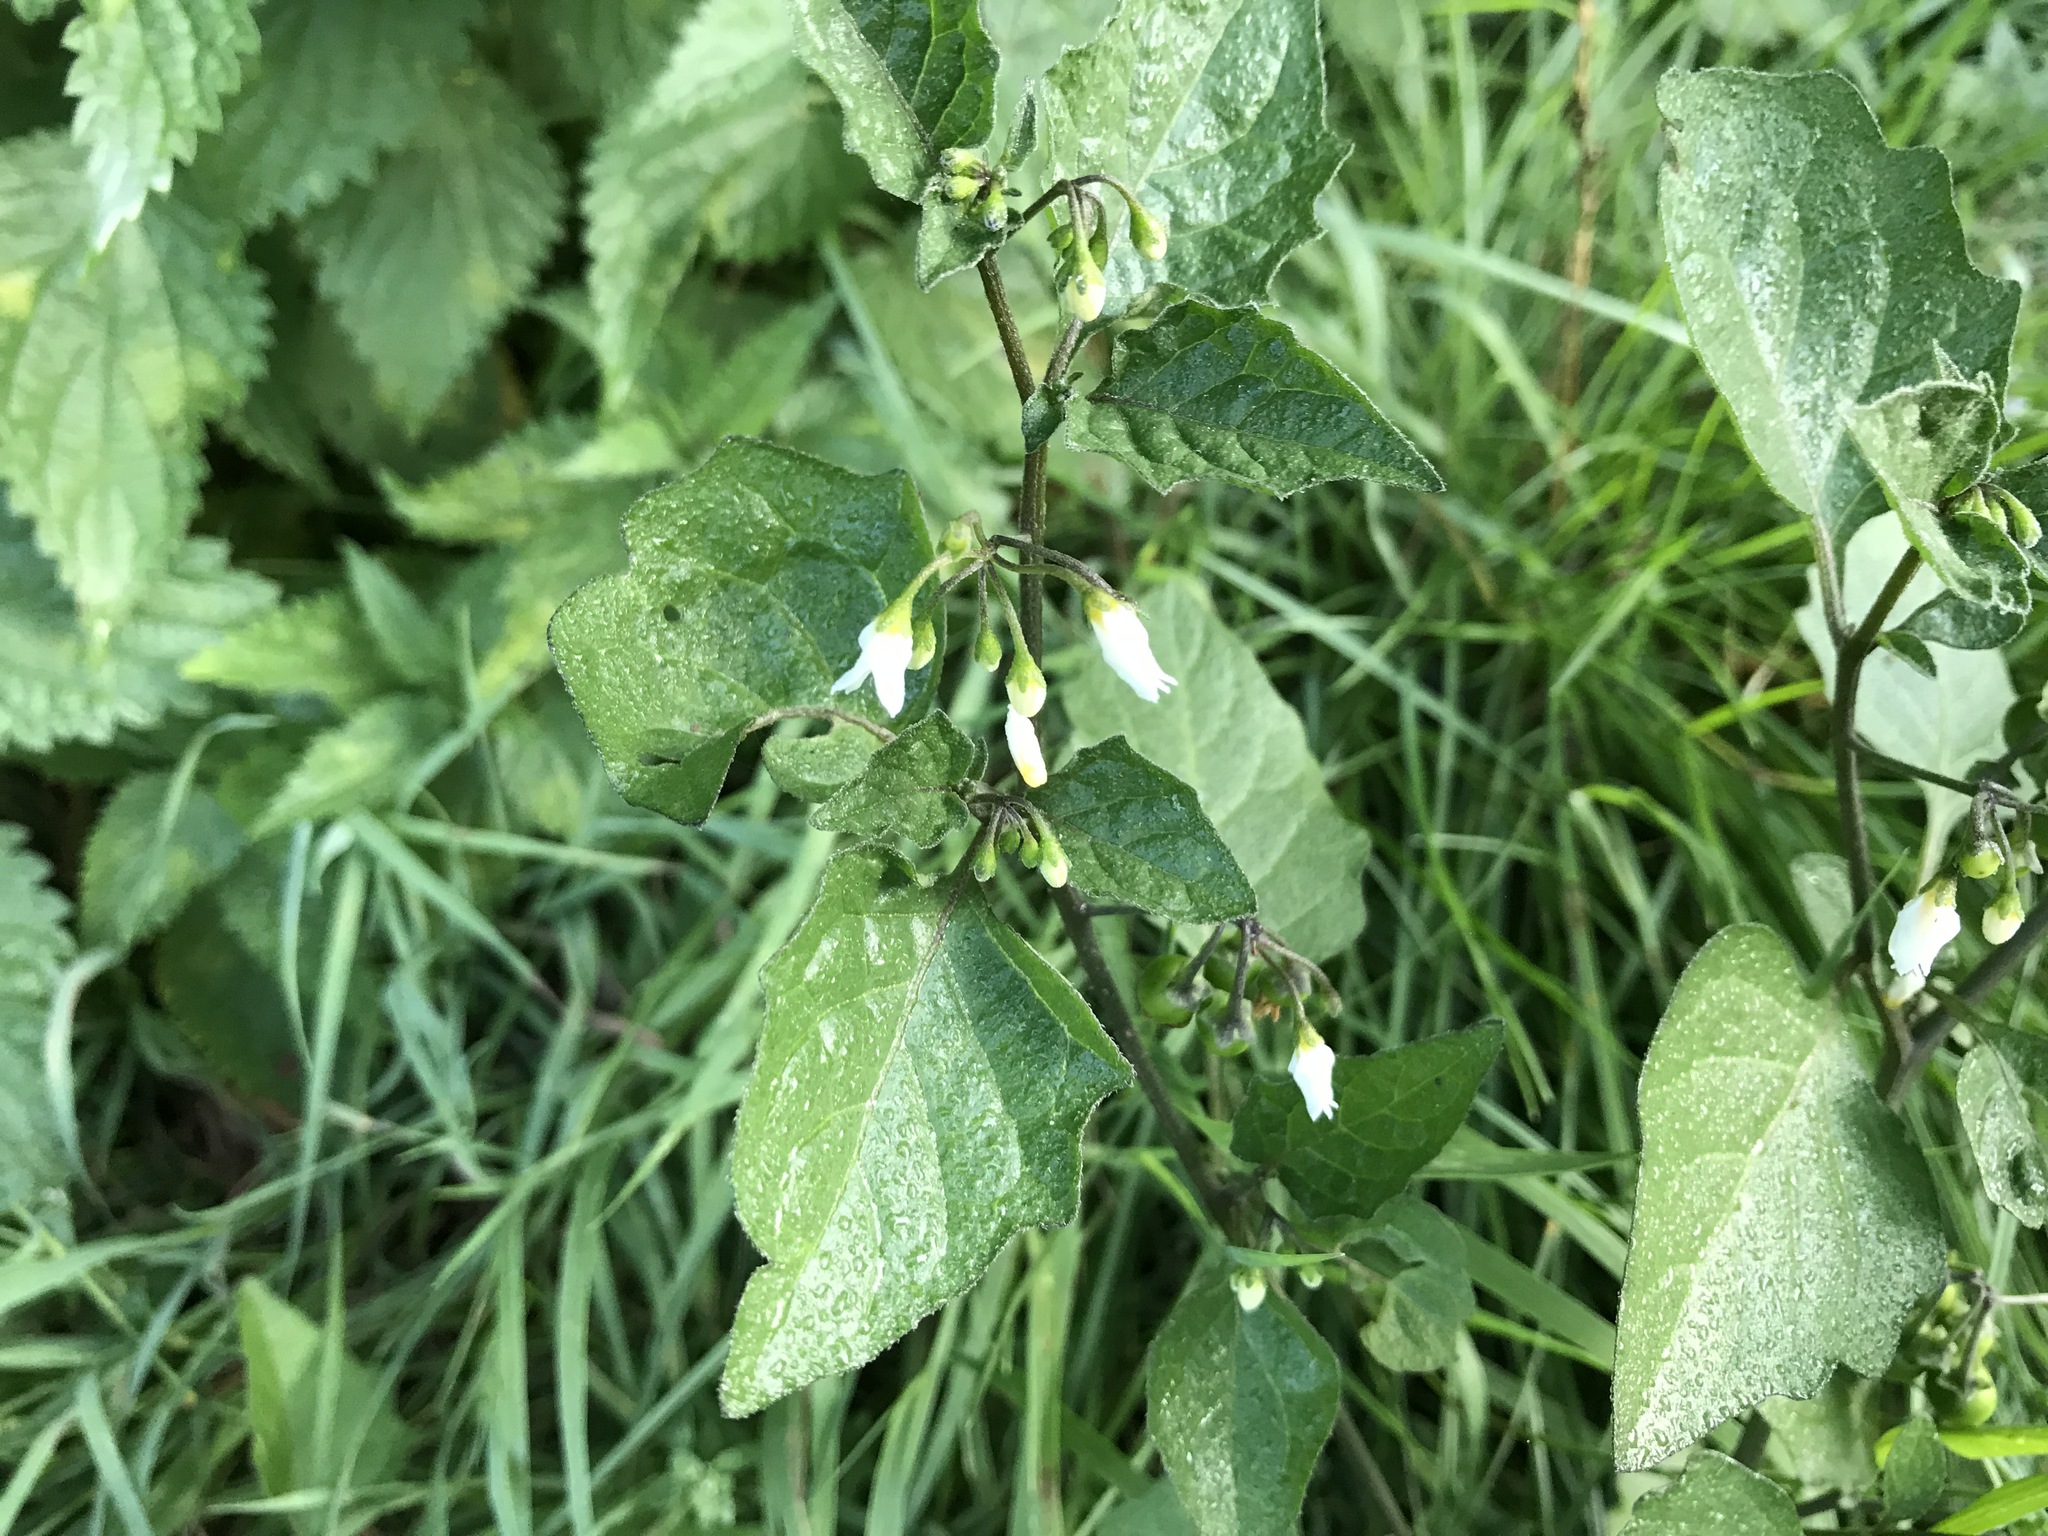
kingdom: Plantae
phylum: Tracheophyta
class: Magnoliopsida
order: Solanales
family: Solanaceae
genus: Solanum
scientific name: Solanum nigrum
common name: Black nightshade
